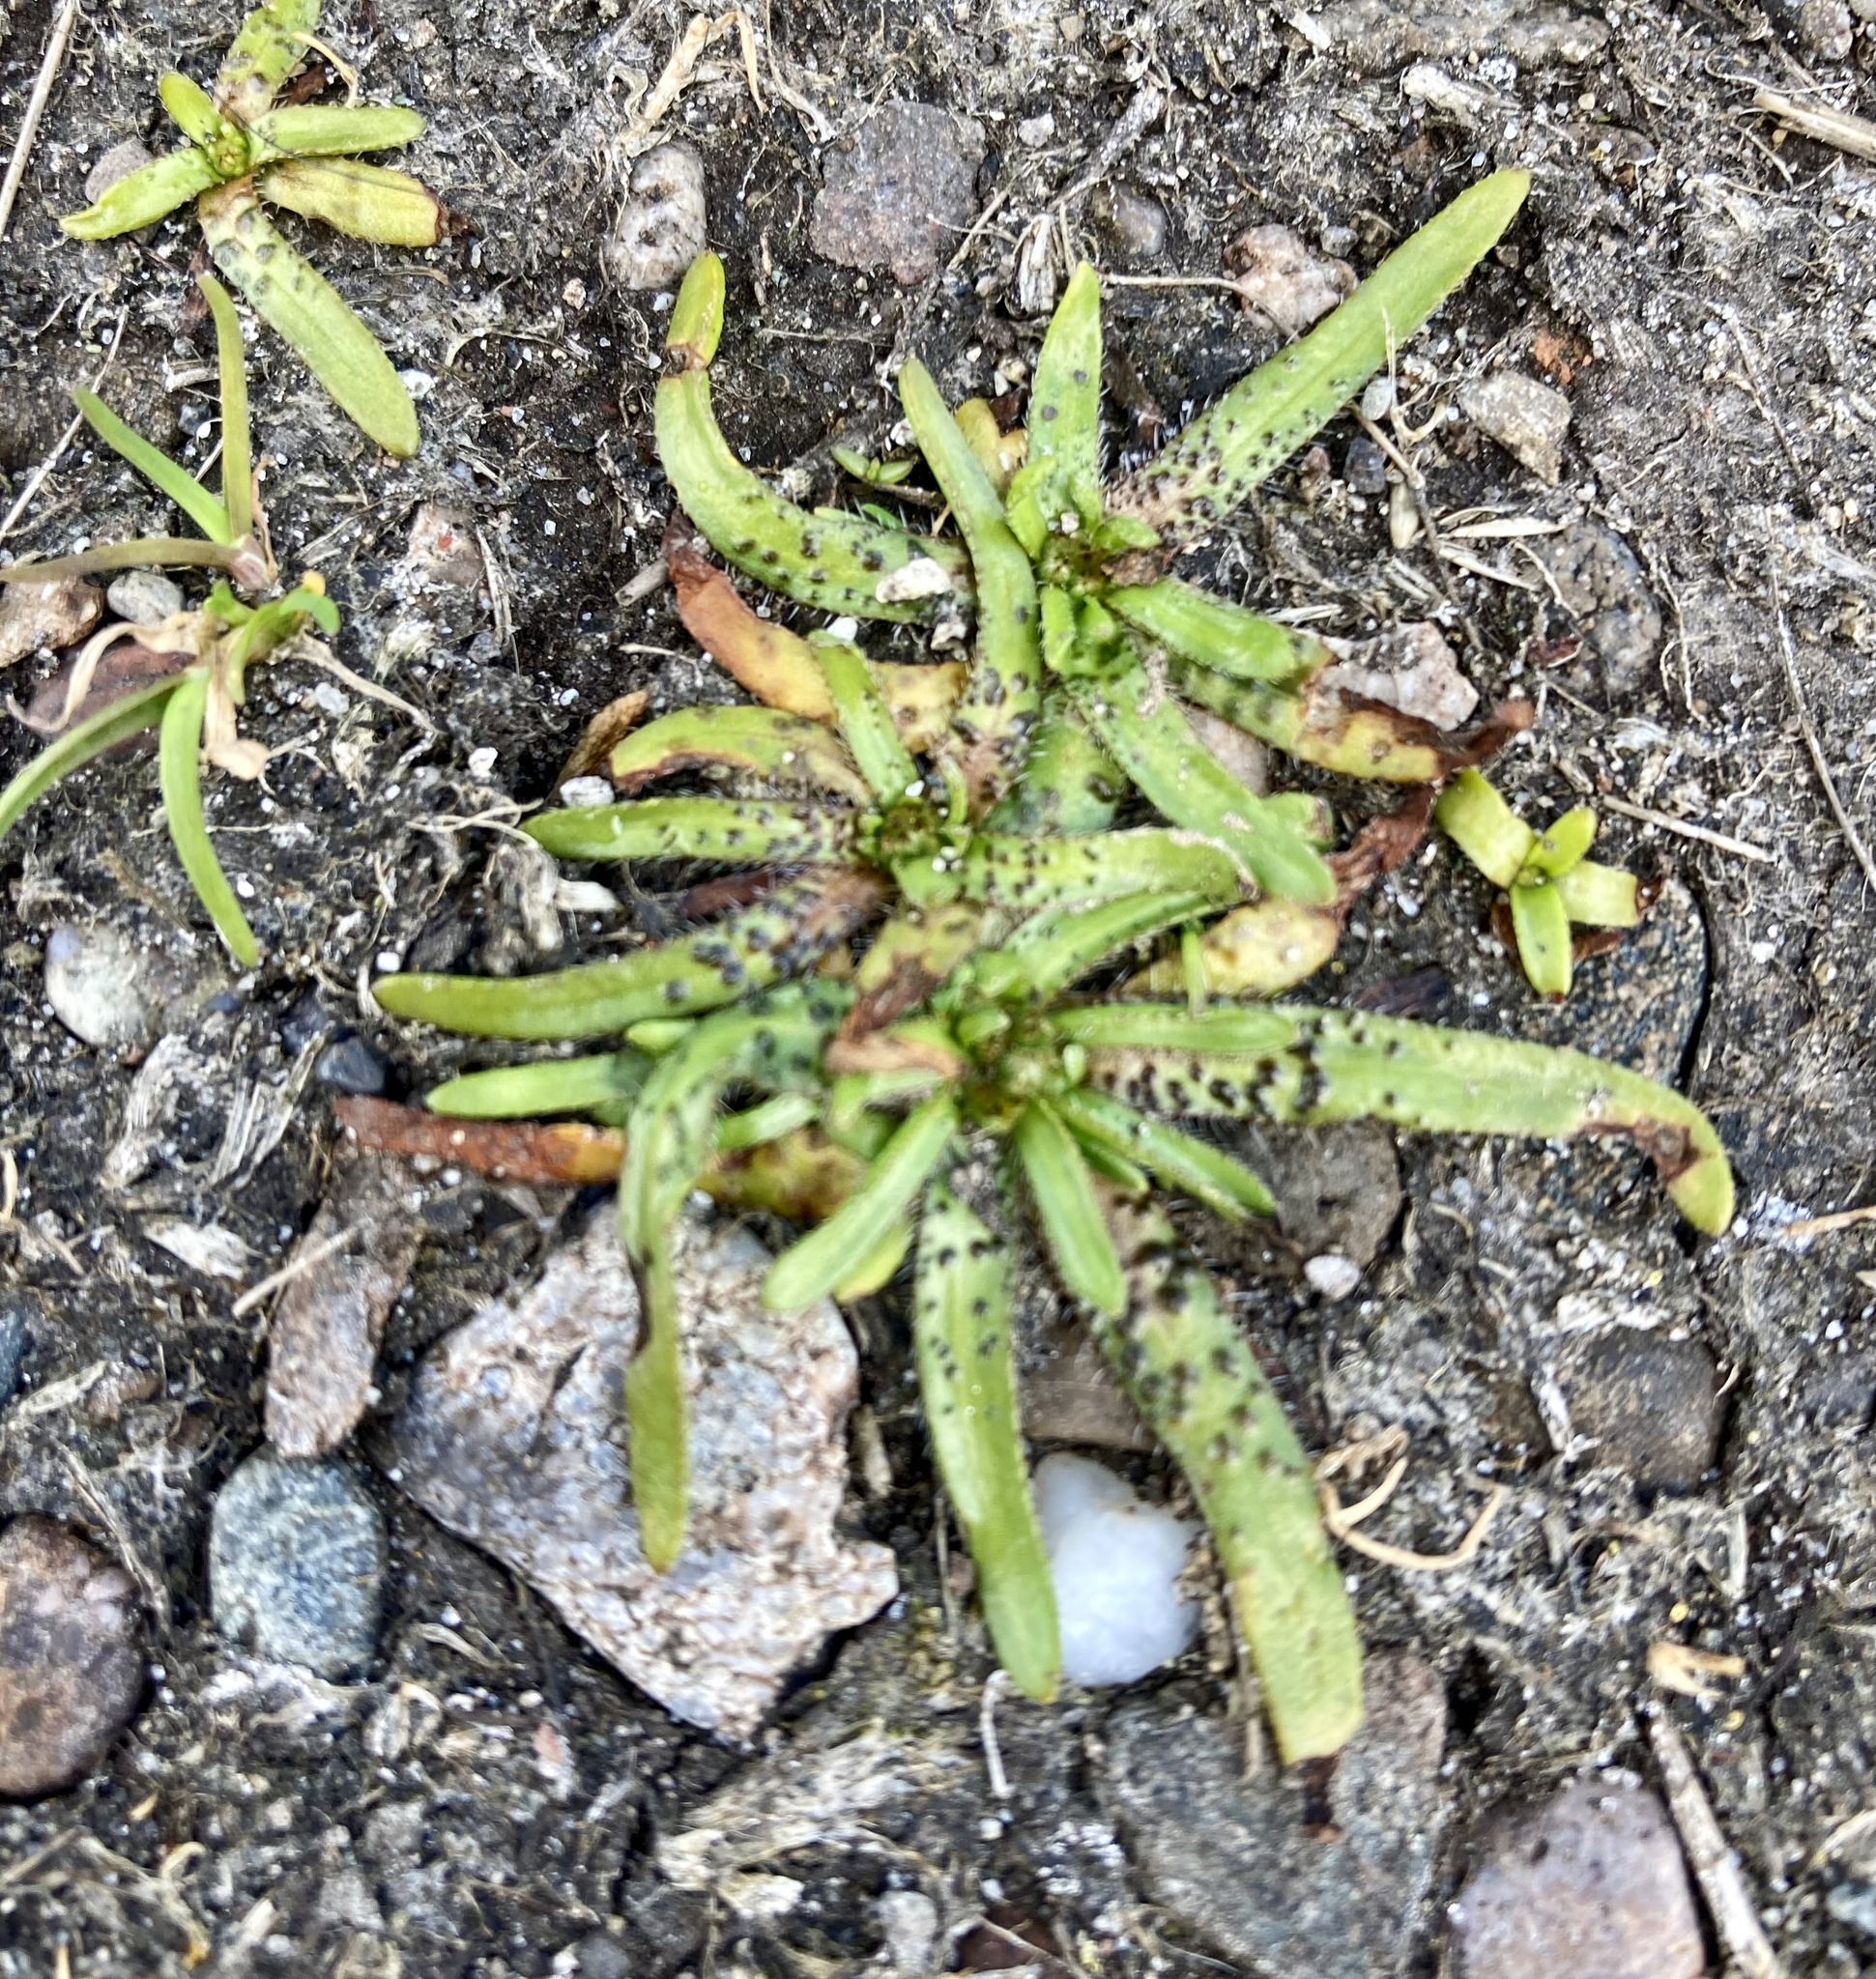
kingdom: Plantae
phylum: Tracheophyta
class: Magnoliopsida
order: Boraginales
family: Boraginaceae
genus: Plagiobothrys
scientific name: Plagiobothrys scouleri
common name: White forget-me-not
